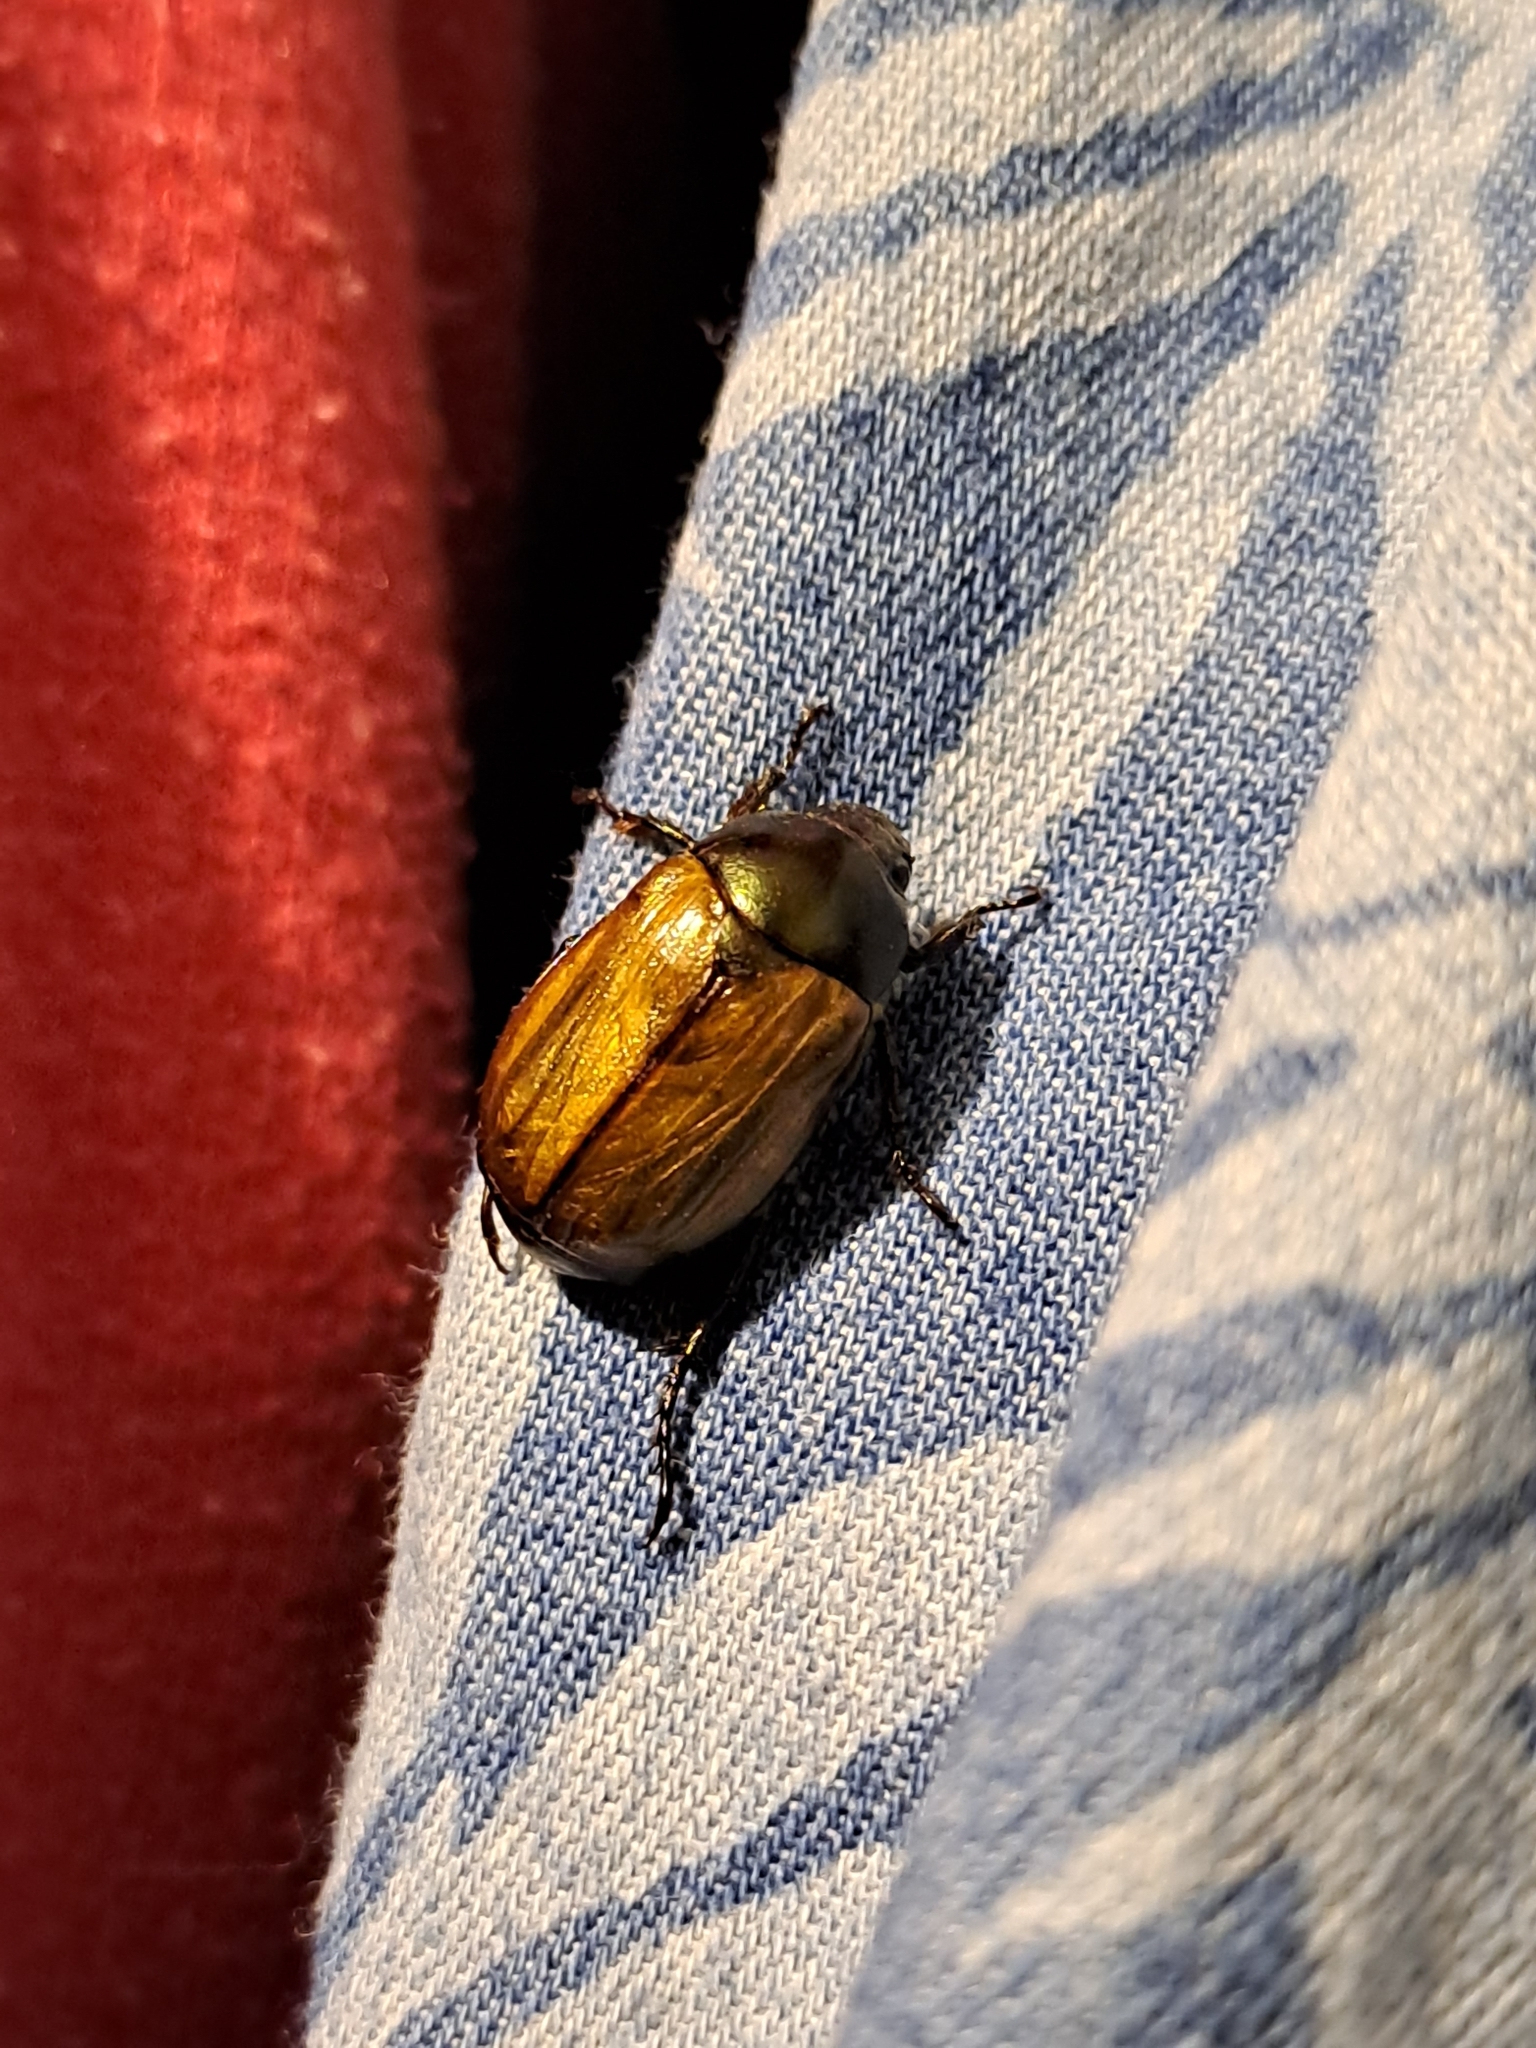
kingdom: Animalia
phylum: Arthropoda
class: Insecta
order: Coleoptera
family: Scarabaeidae
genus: Paranomala
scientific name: Paranomala testaceipennis
